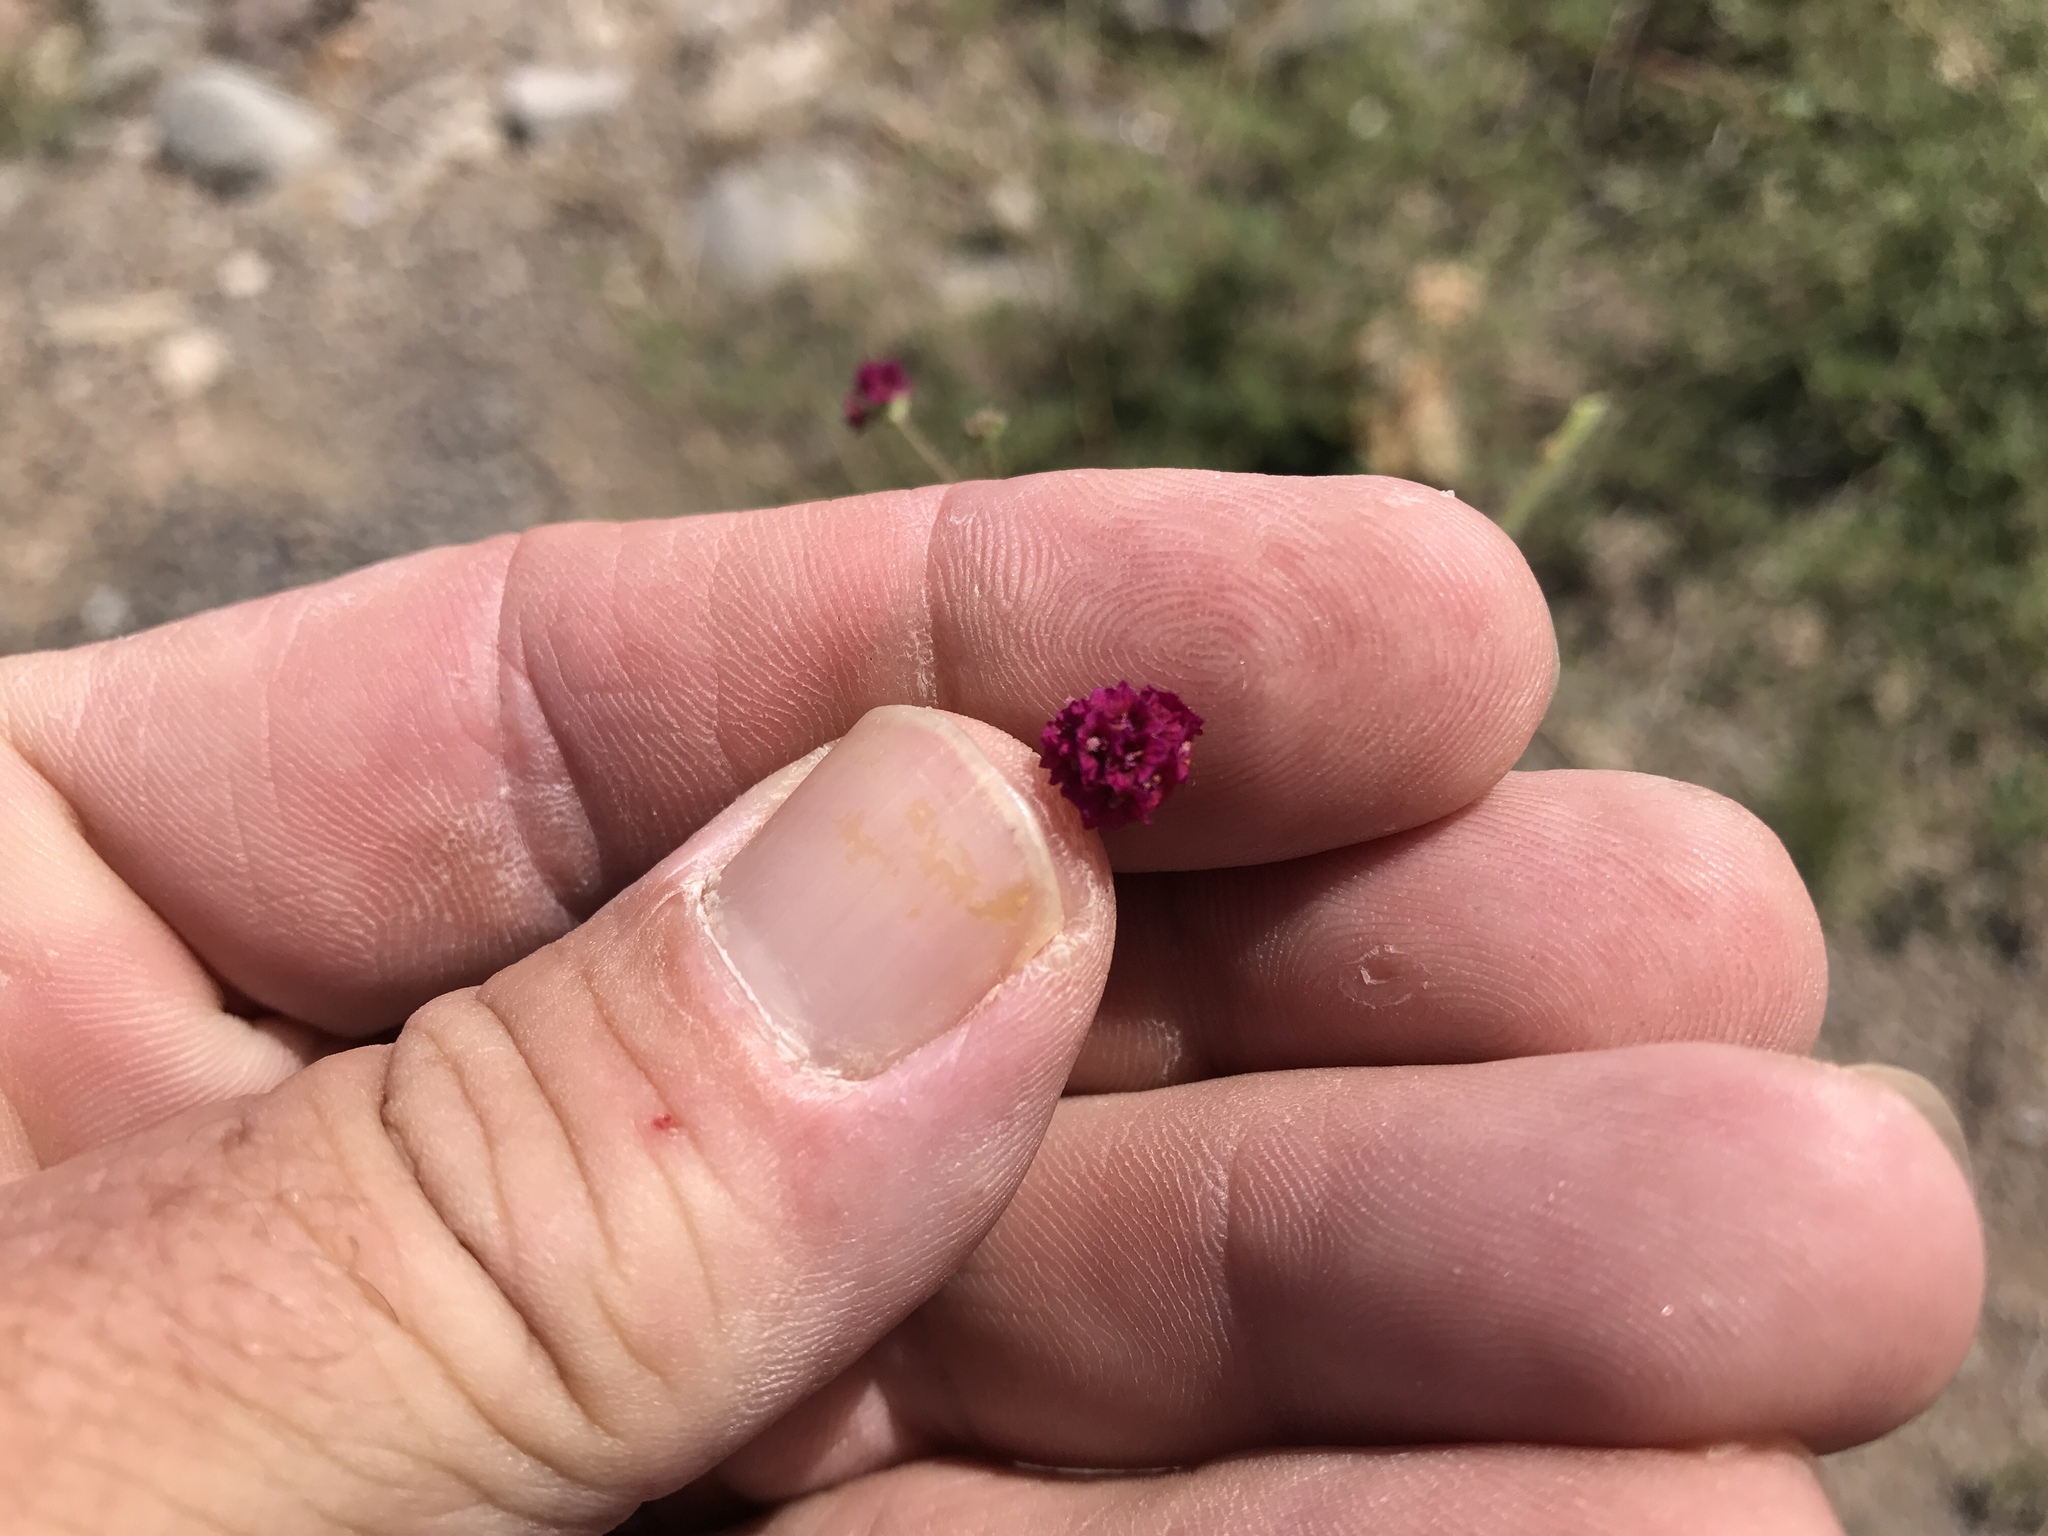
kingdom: Plantae
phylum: Tracheophyta
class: Magnoliopsida
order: Caryophyllales
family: Nyctaginaceae
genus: Boerhavia
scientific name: Boerhavia coccinea
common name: Scarlet spiderling
